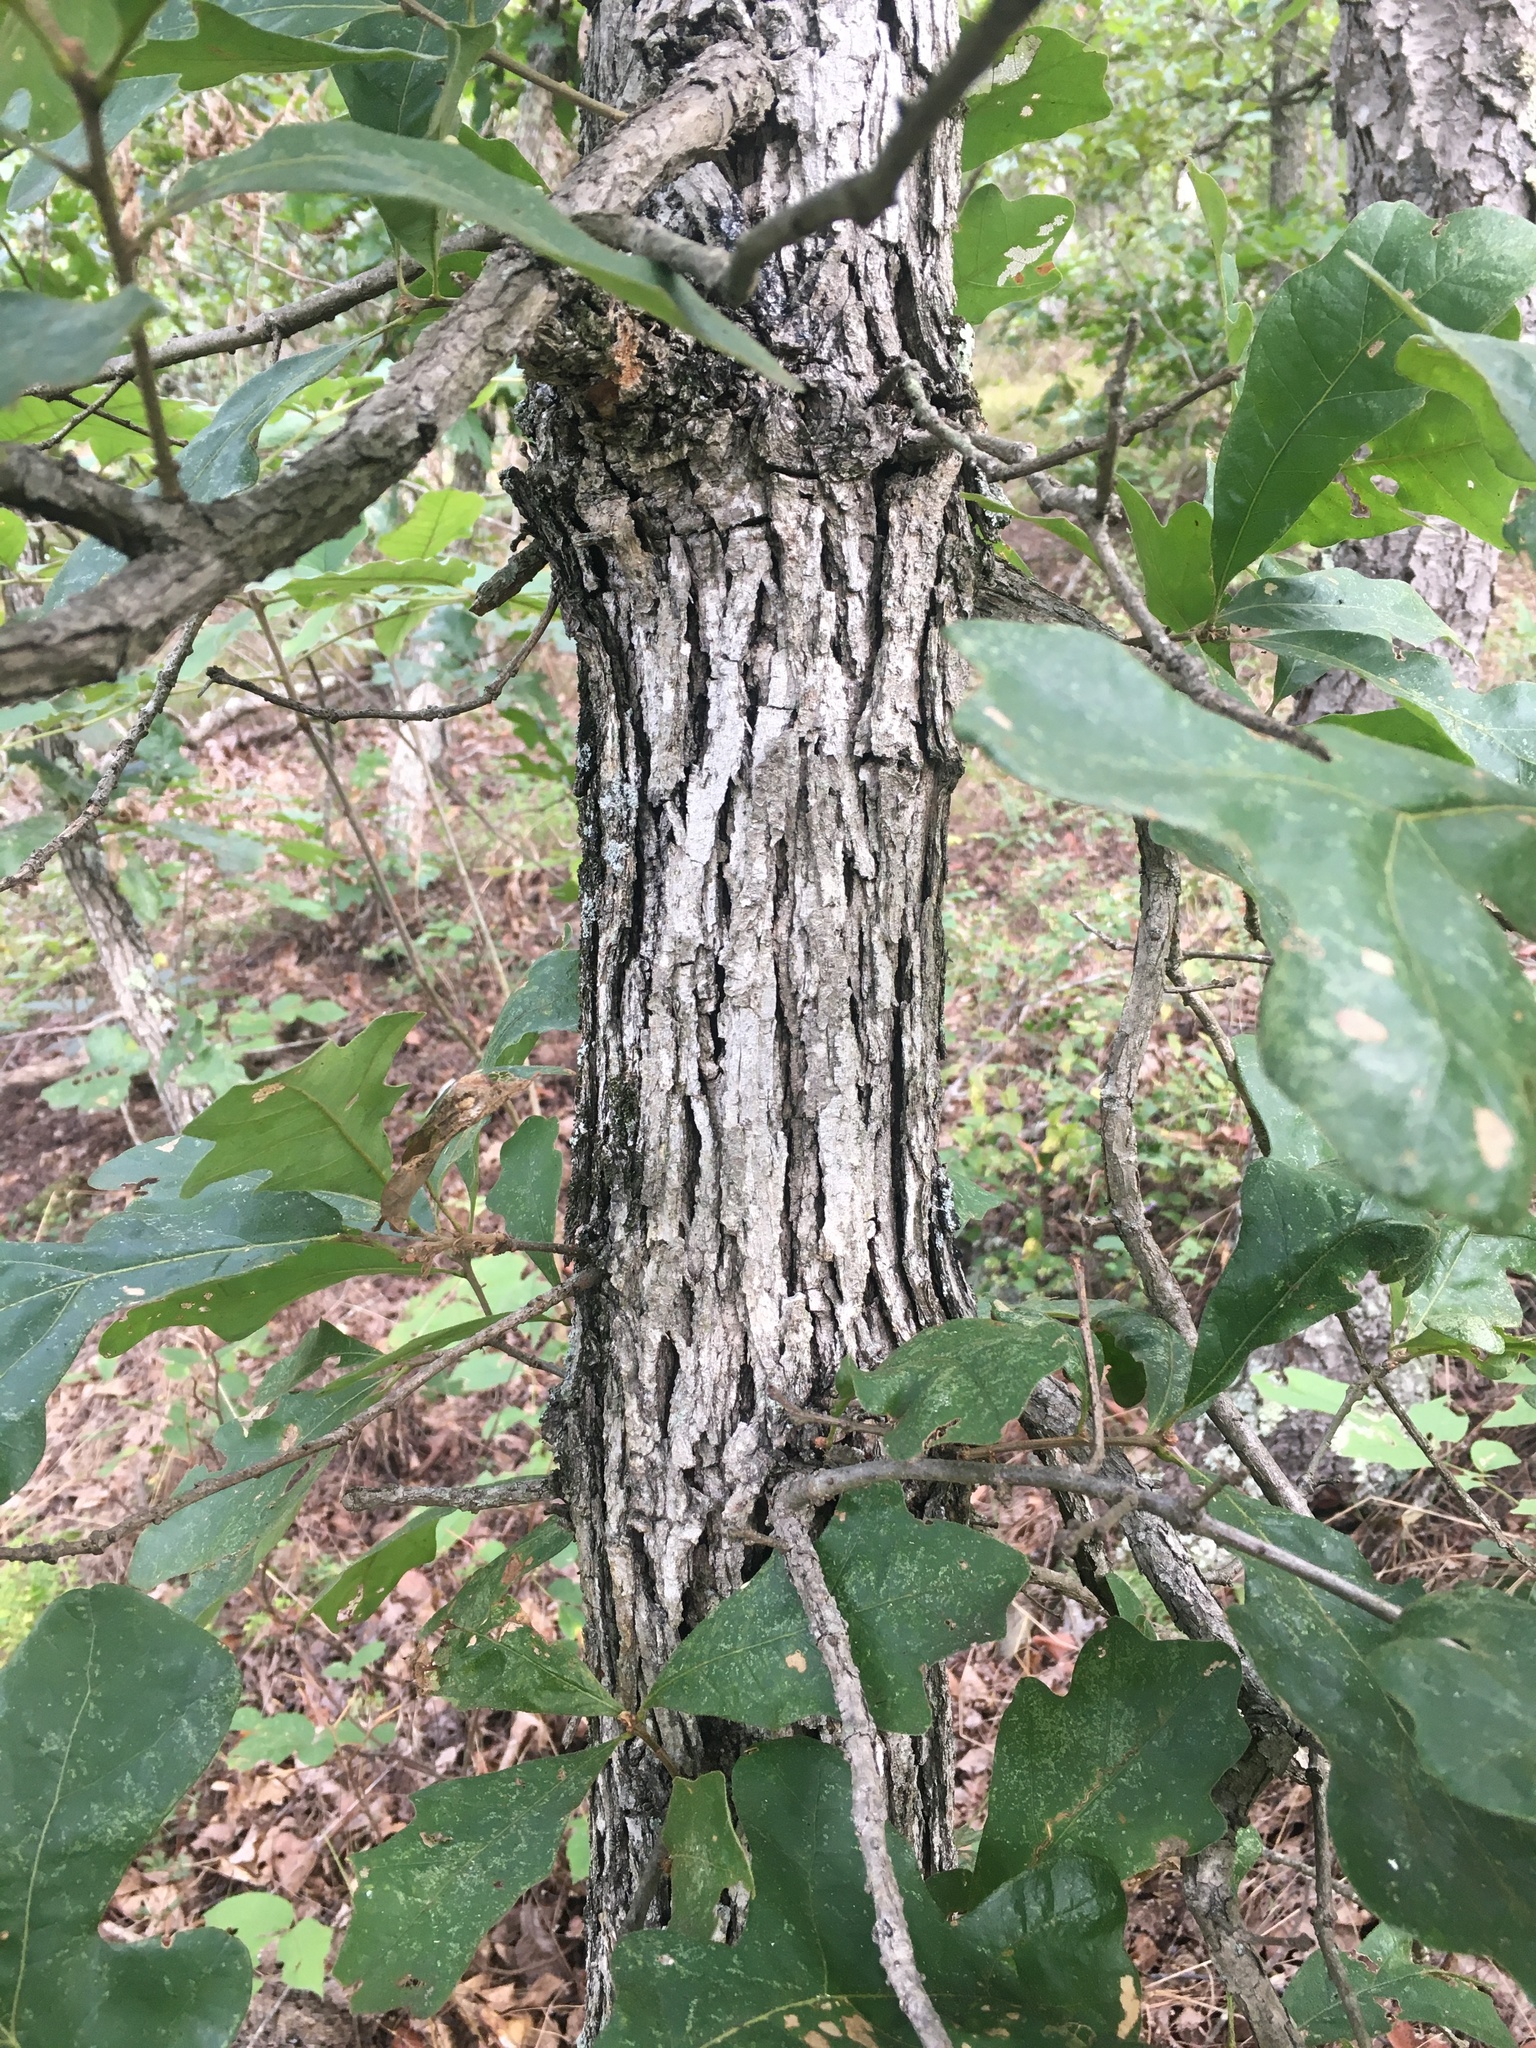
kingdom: Plantae
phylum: Tracheophyta
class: Magnoliopsida
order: Fagales
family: Fagaceae
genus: Quercus
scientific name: Quercus stellata
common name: Post oak
